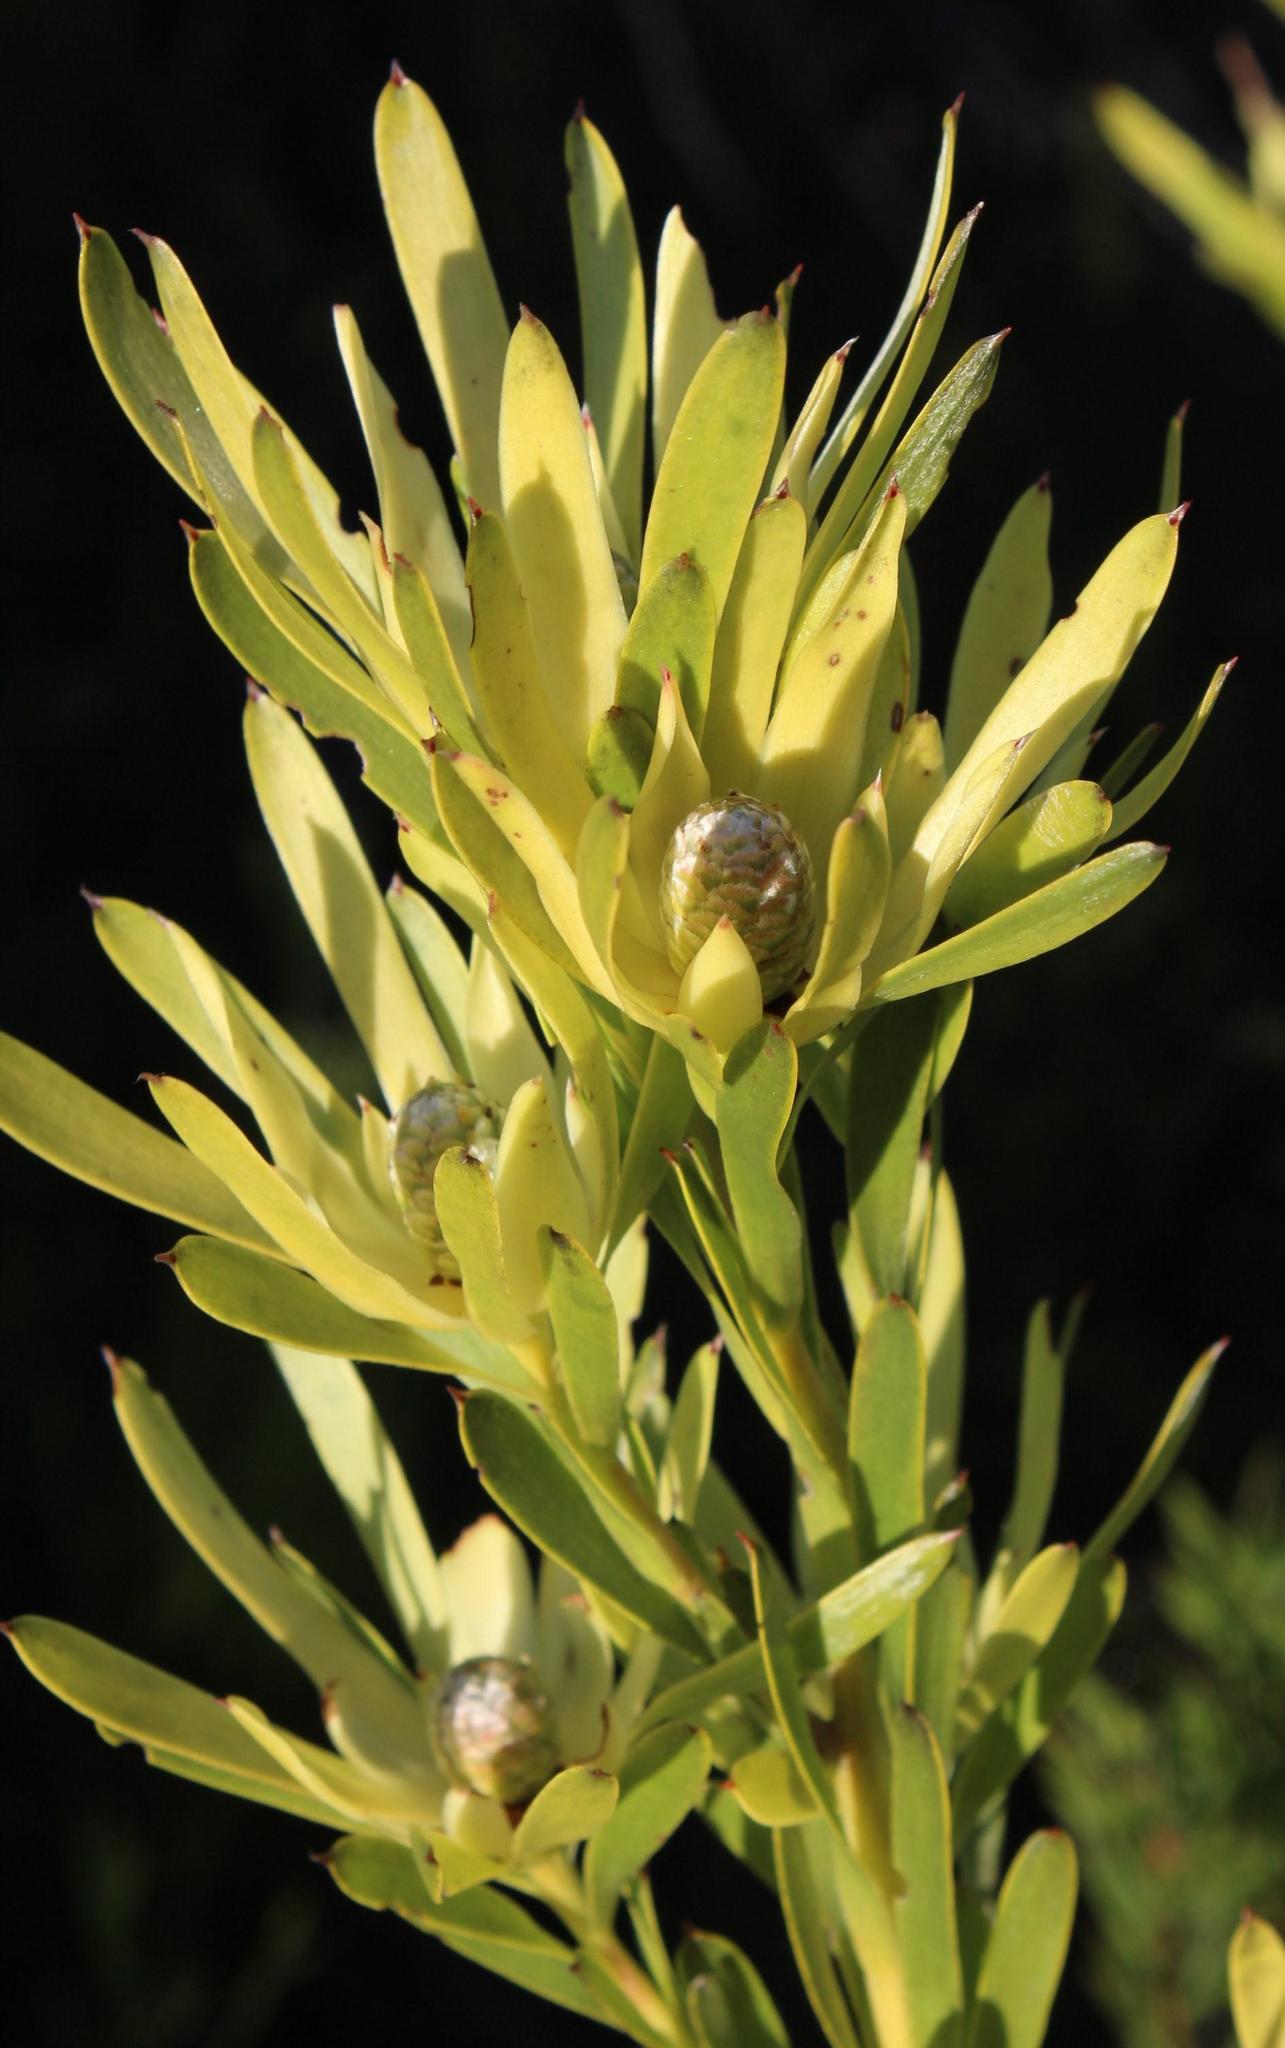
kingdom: Plantae
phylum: Tracheophyta
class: Magnoliopsida
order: Proteales
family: Proteaceae
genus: Leucadendron
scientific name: Leucadendron xanthoconus
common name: Sickle-leaf conebush
